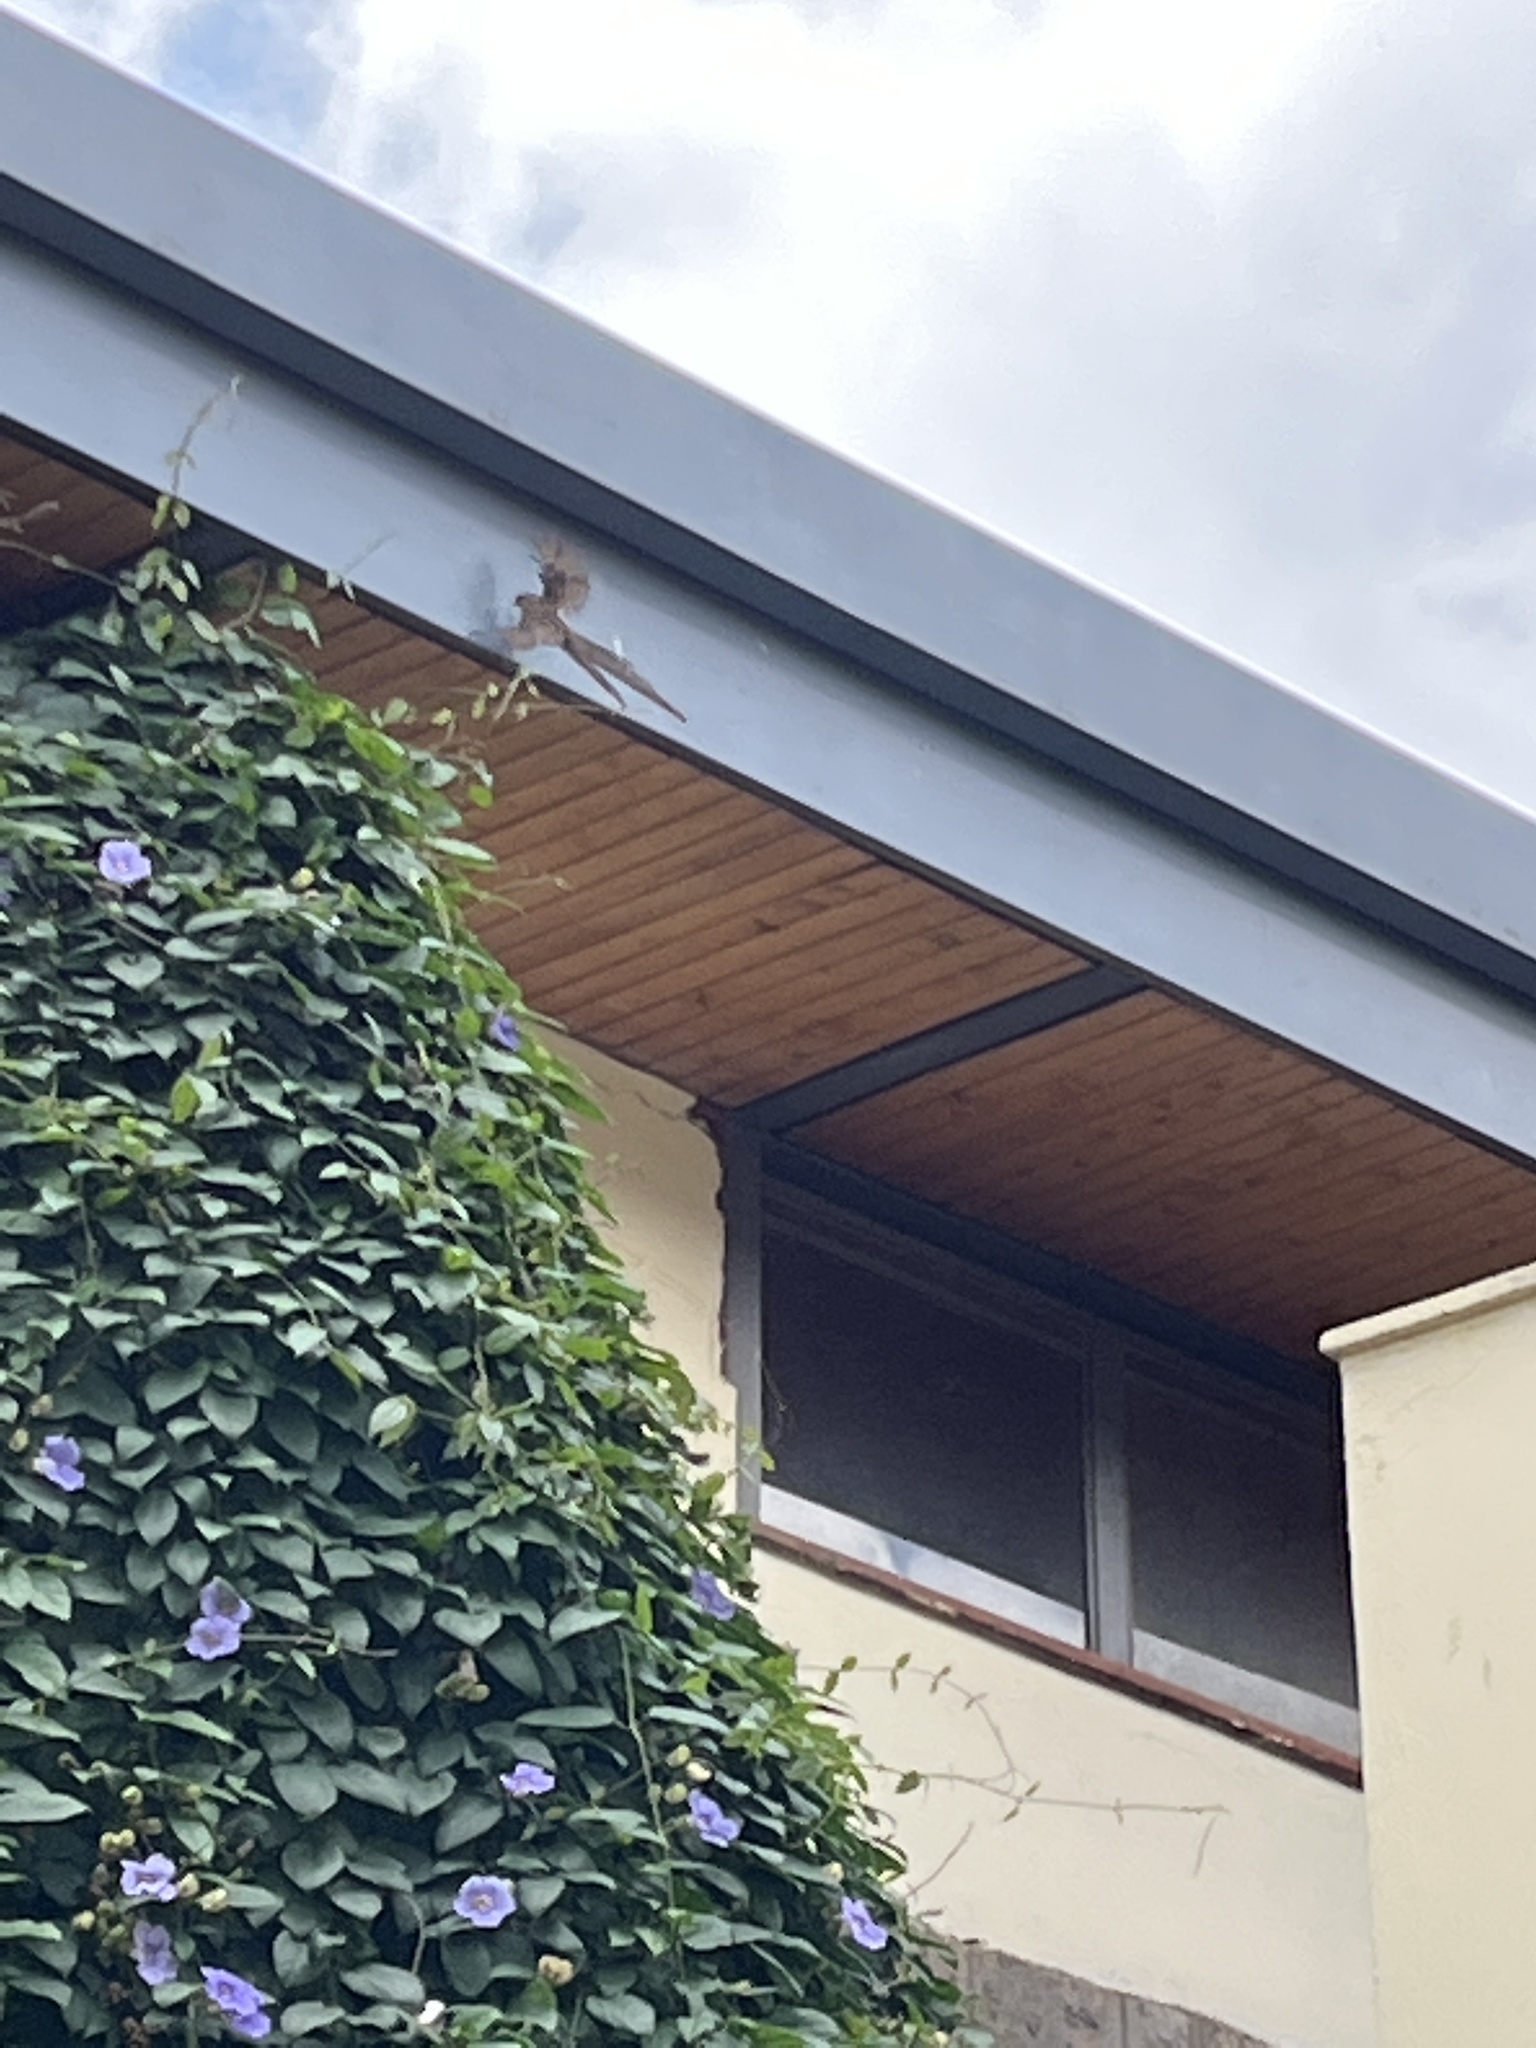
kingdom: Animalia
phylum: Chordata
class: Aves
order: Coliiformes
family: Coliidae
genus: Colius
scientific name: Colius striatus
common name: Speckled mousebird
